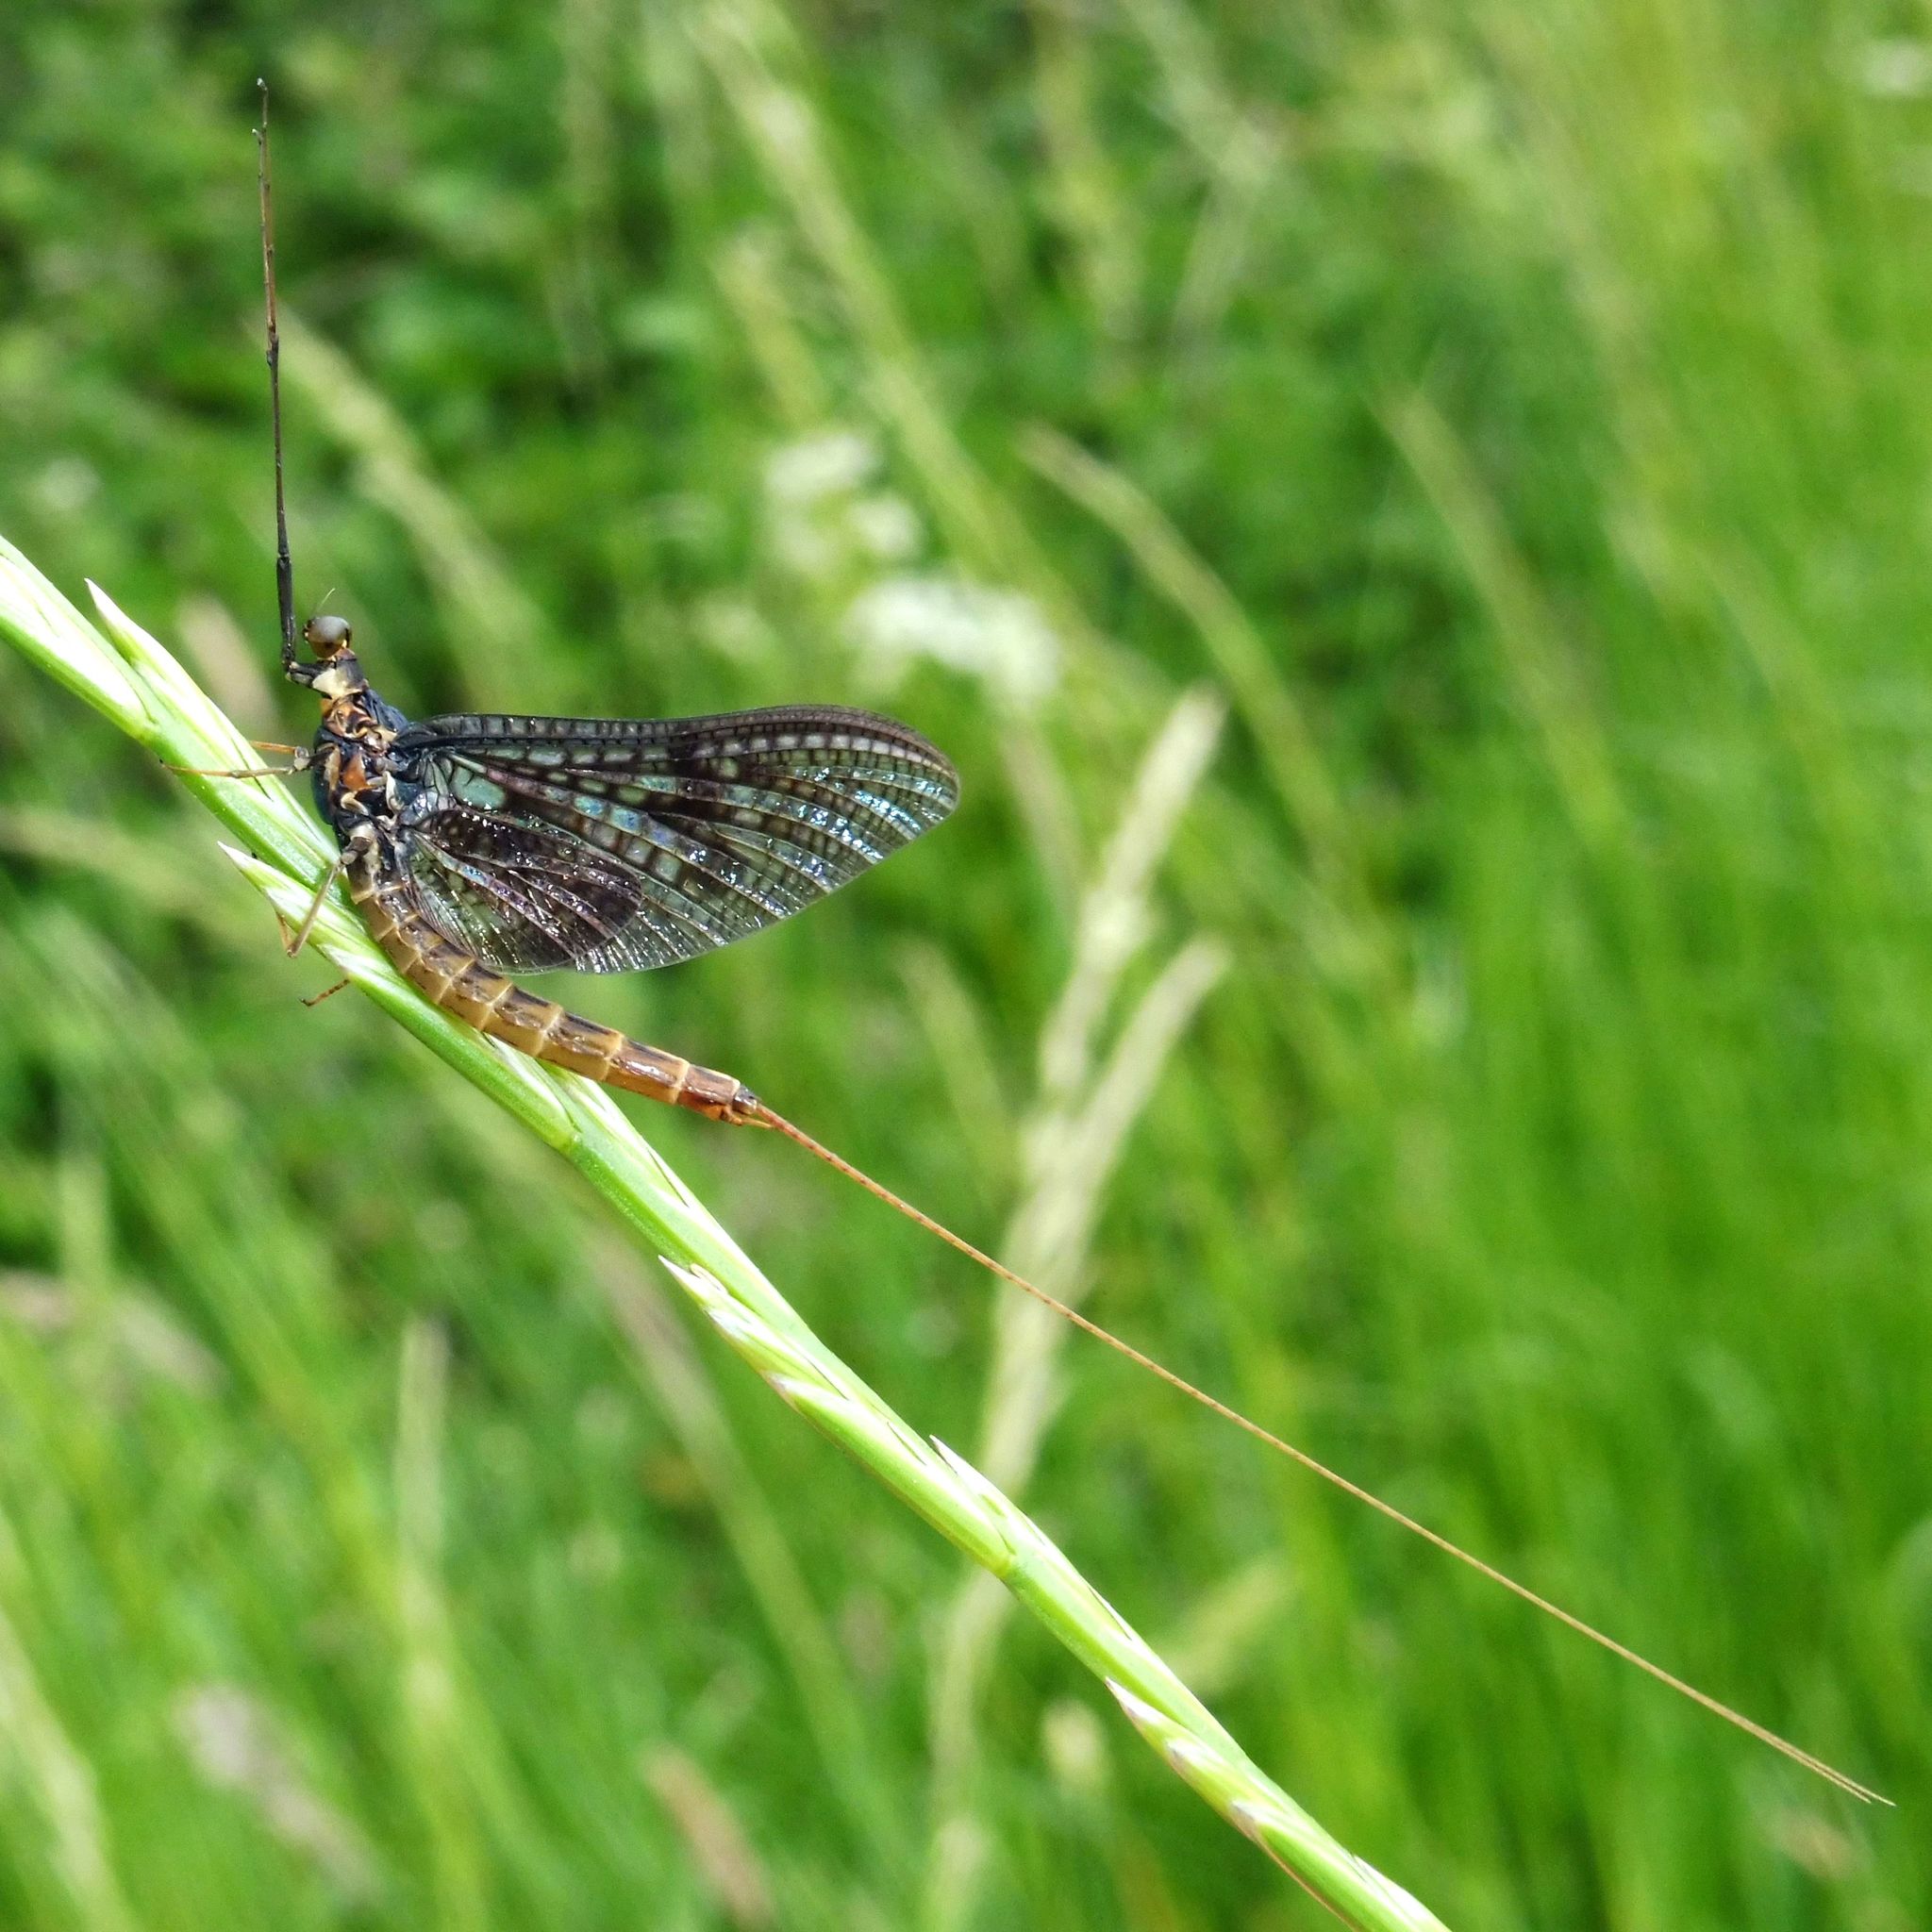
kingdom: Animalia
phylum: Arthropoda
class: Insecta
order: Ephemeroptera
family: Ephemeridae
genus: Ephemera
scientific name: Ephemera vulgata
